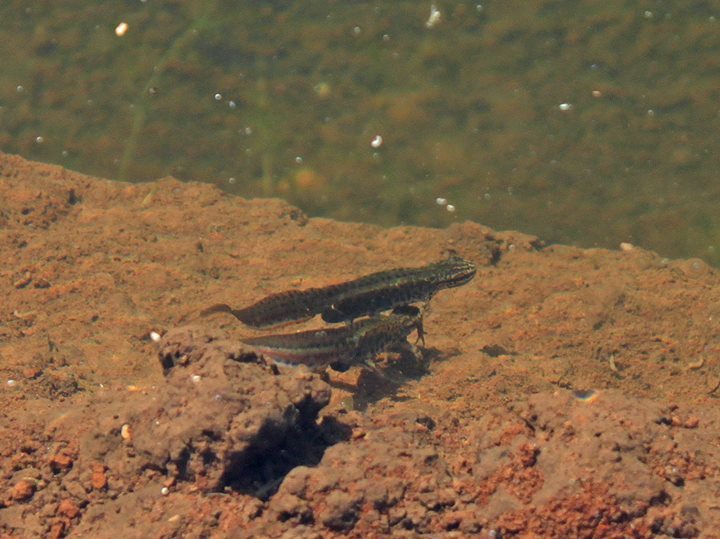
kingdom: Animalia
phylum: Chordata
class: Amphibia
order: Caudata
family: Salamandridae
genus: Lissotriton
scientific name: Lissotriton graecus
